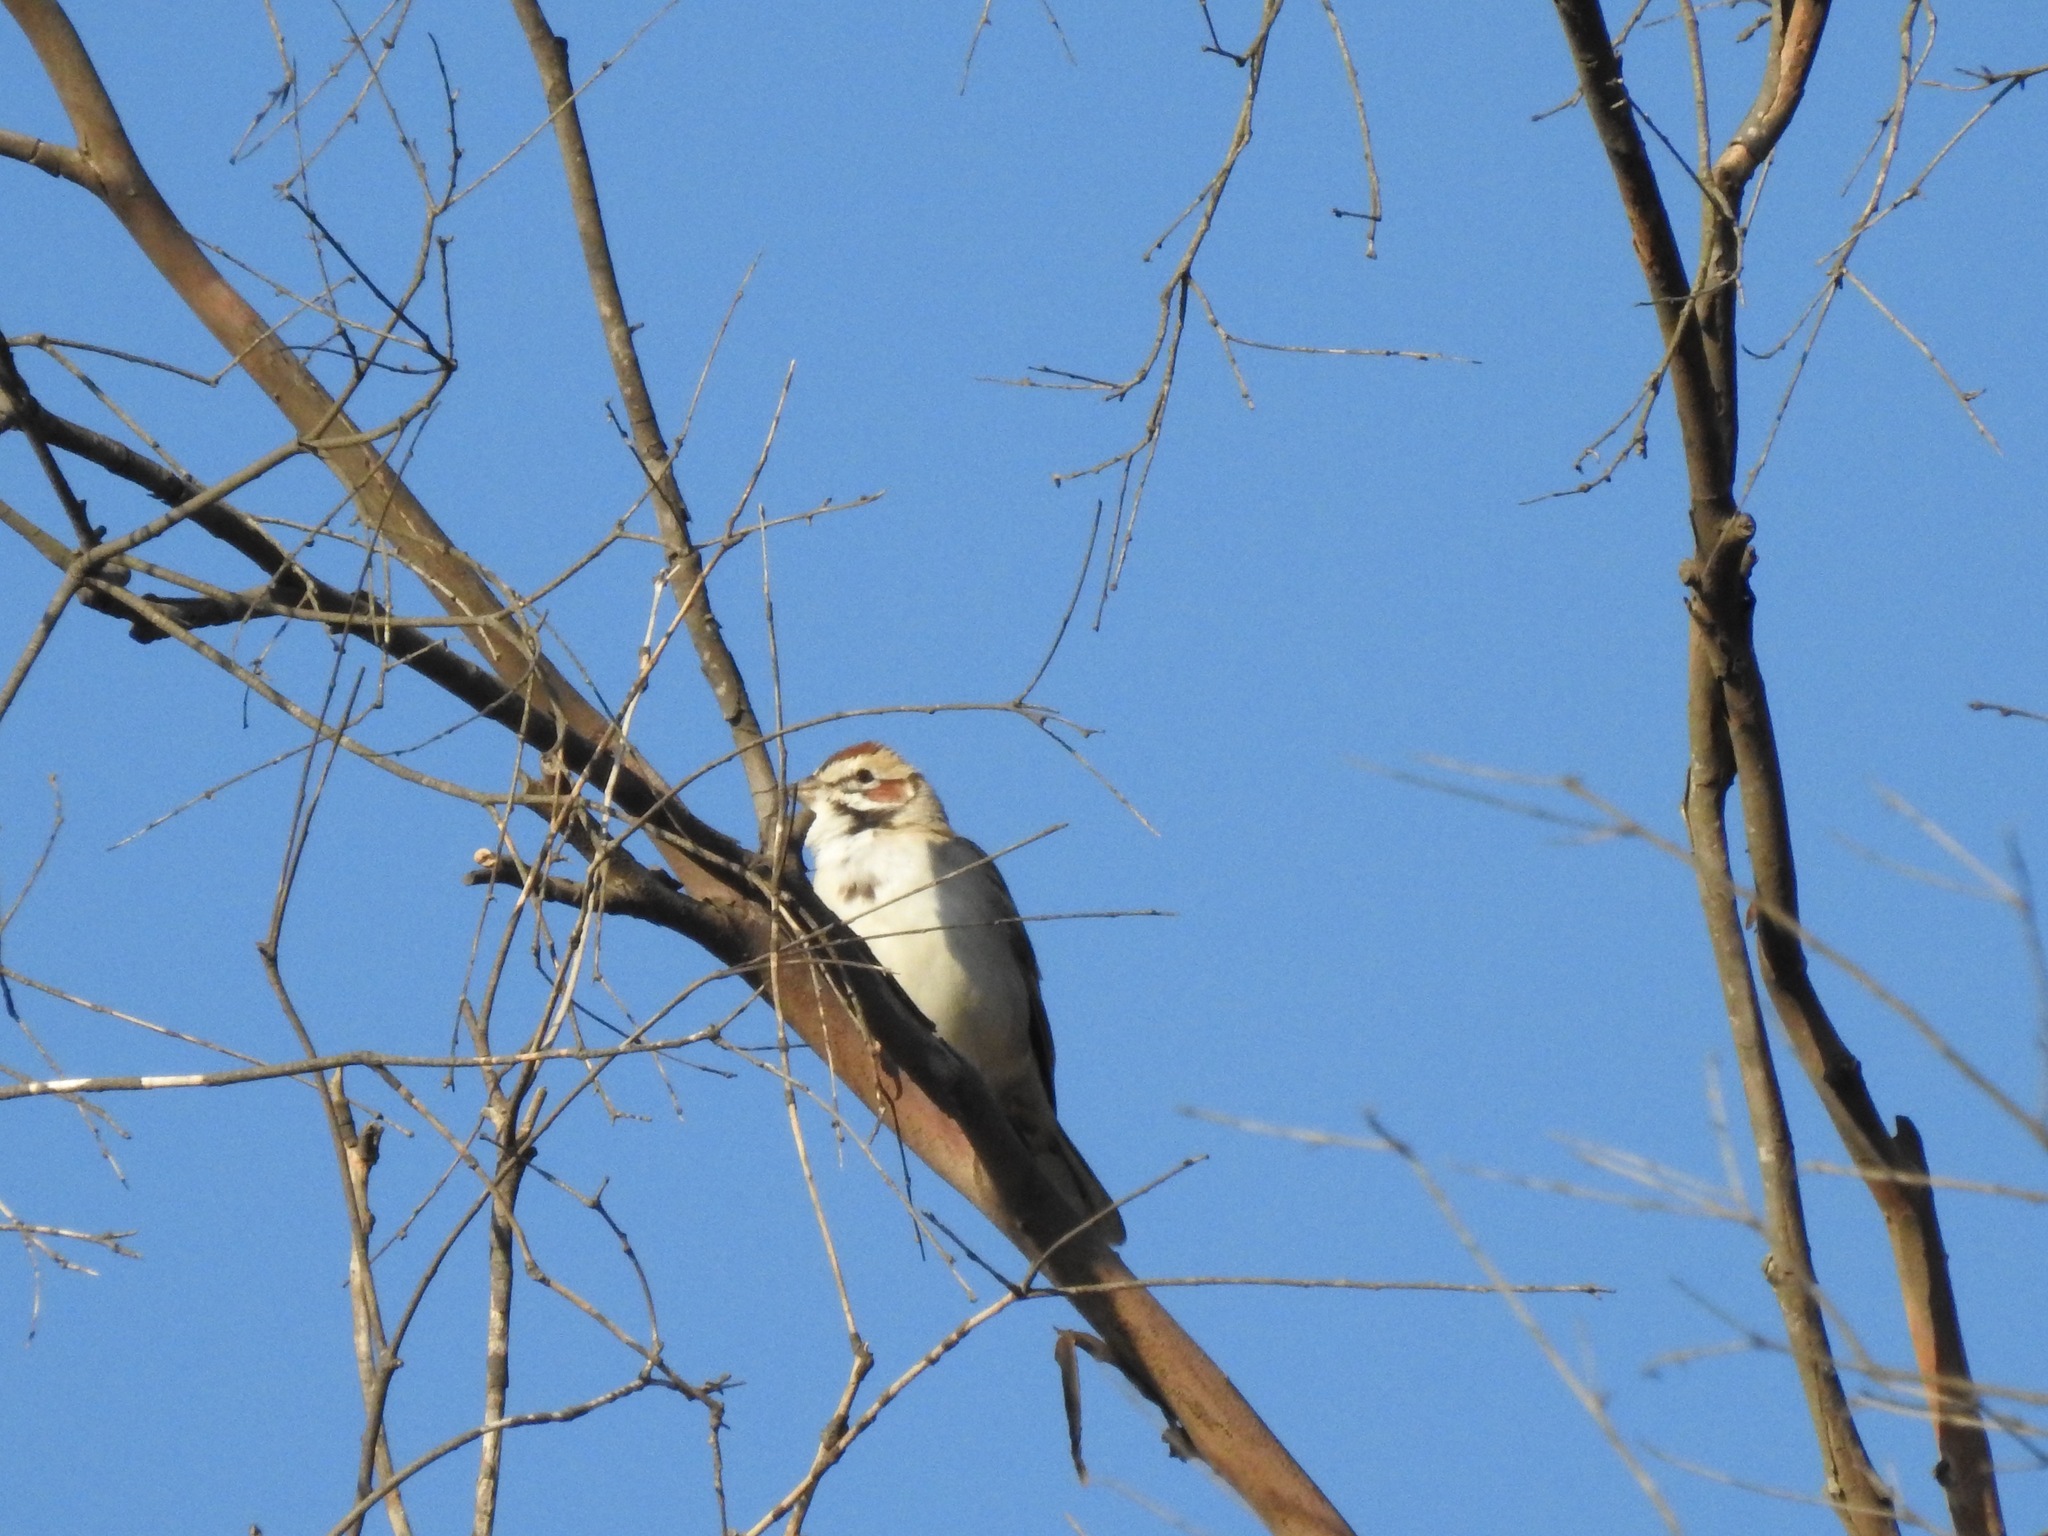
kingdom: Animalia
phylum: Chordata
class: Aves
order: Passeriformes
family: Passerellidae
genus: Chondestes
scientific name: Chondestes grammacus
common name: Lark sparrow
